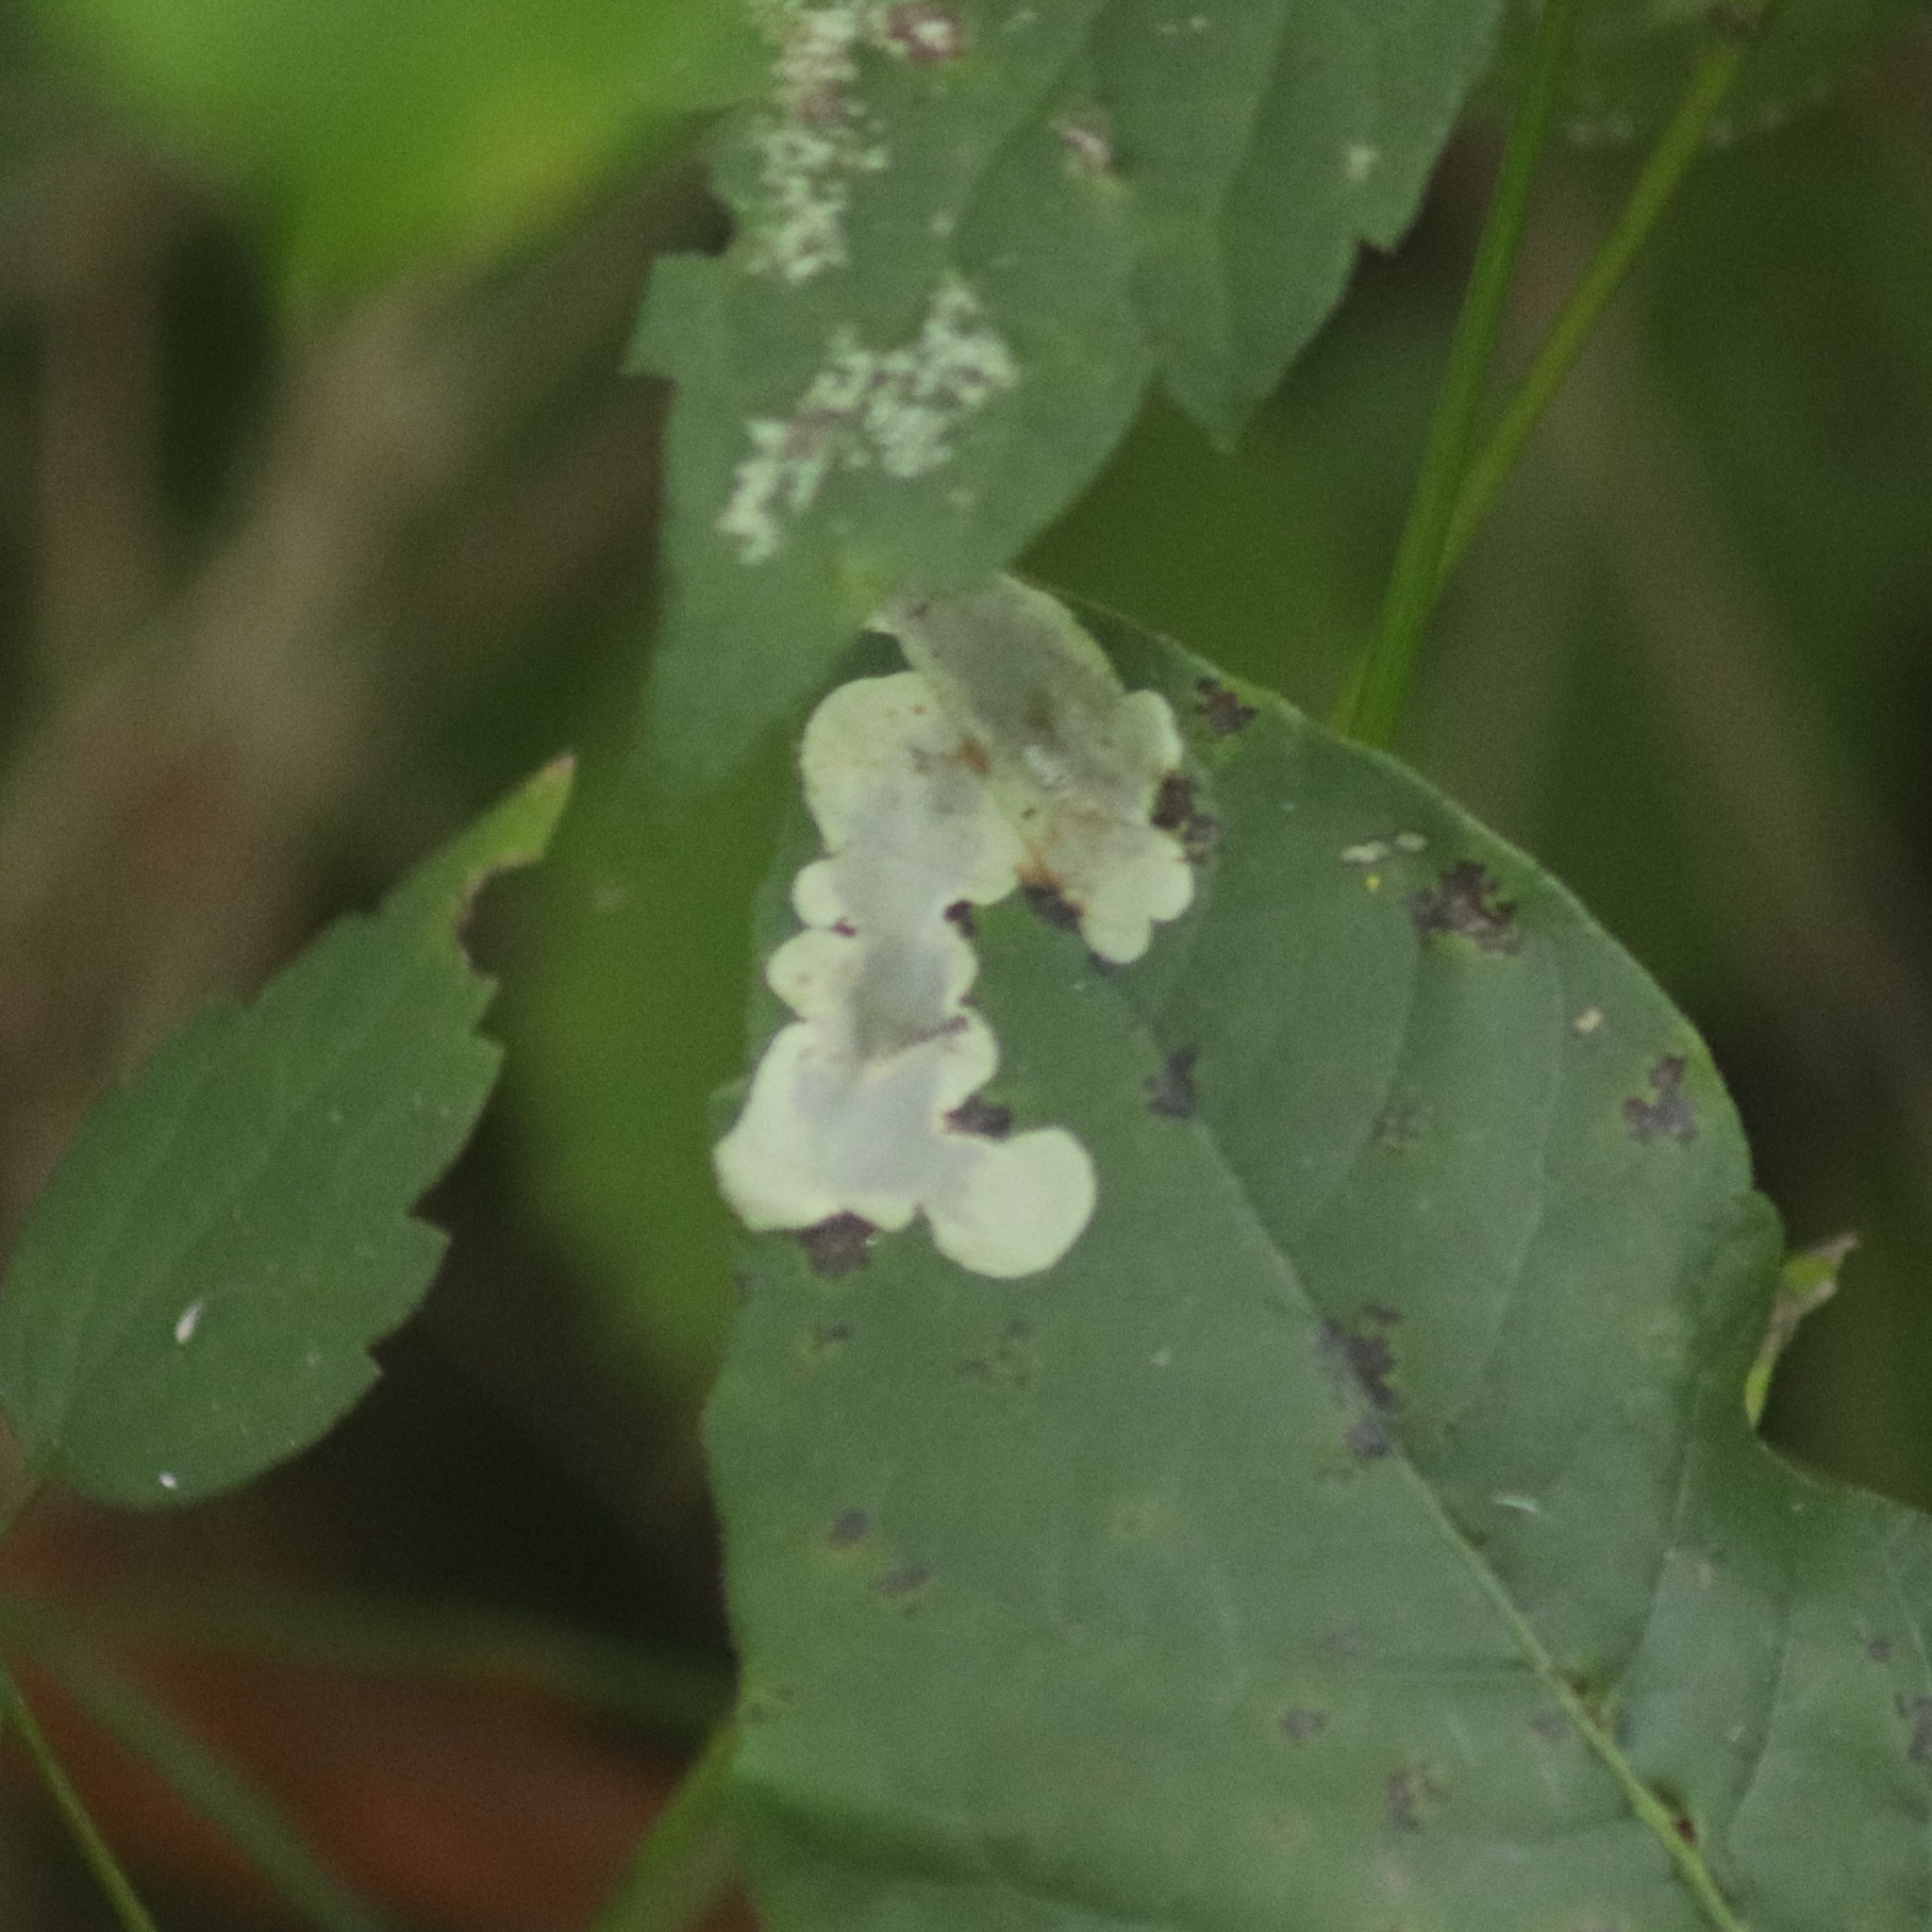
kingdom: Animalia
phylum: Arthropoda
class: Insecta
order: Lepidoptera
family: Gracillariidae
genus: Cameraria
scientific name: Cameraria guttifinitella
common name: Poison ivy leaf-miner moth
